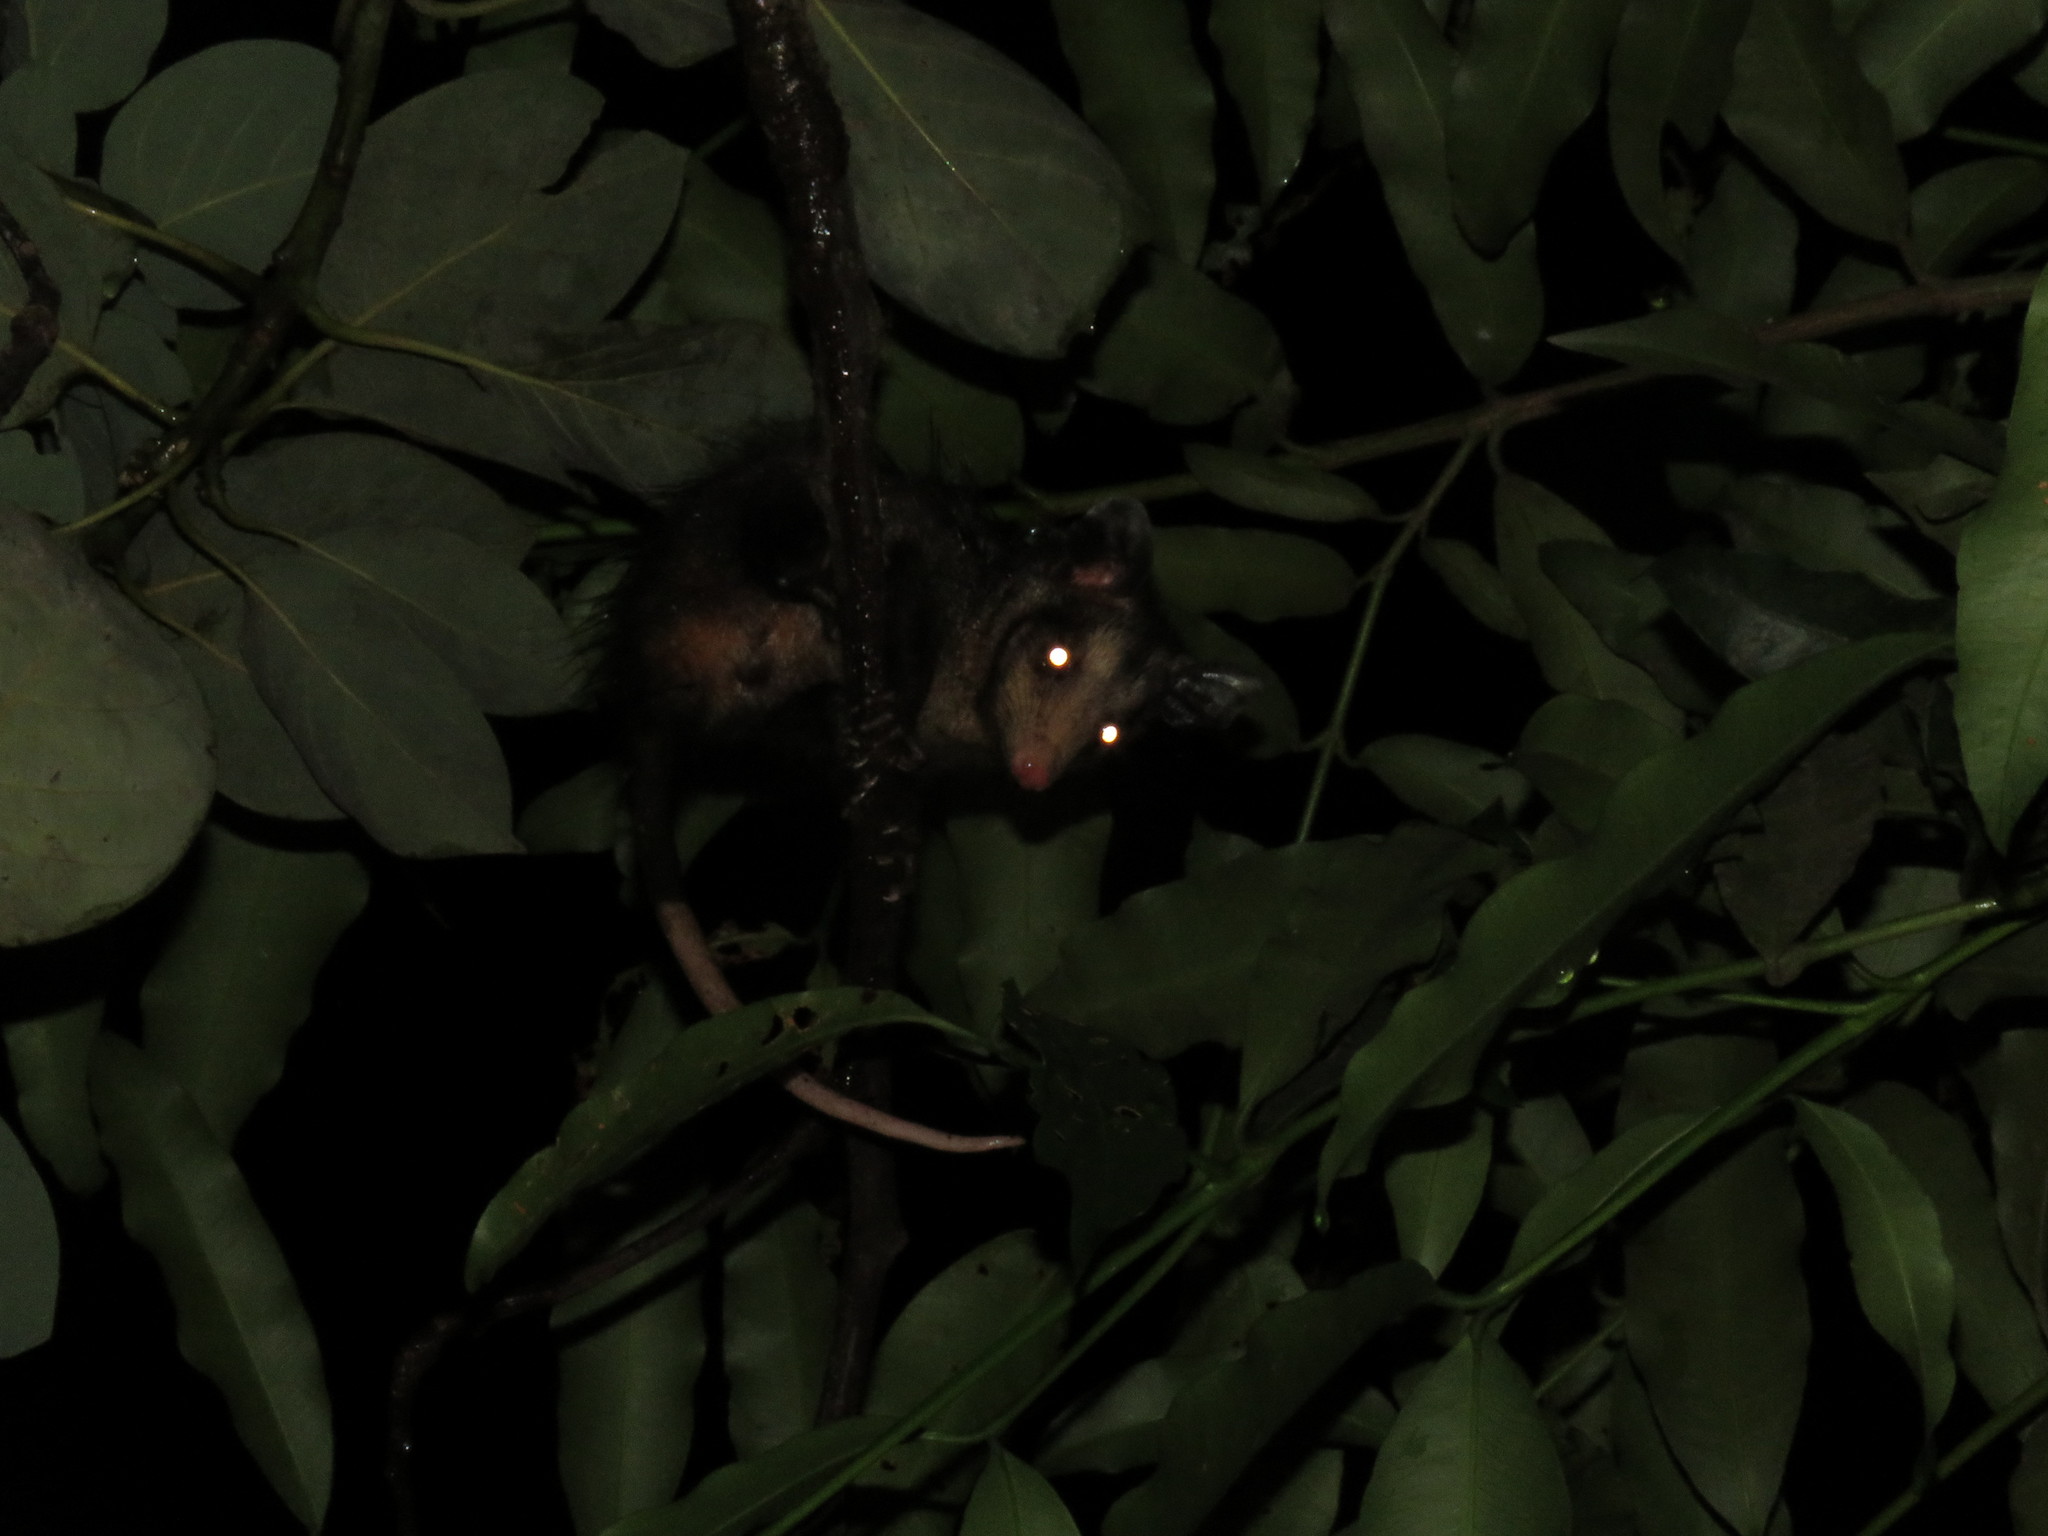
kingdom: Animalia
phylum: Chordata
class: Mammalia
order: Didelphimorphia
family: Didelphidae
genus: Didelphis
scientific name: Didelphis marsupialis
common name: Common opossum
